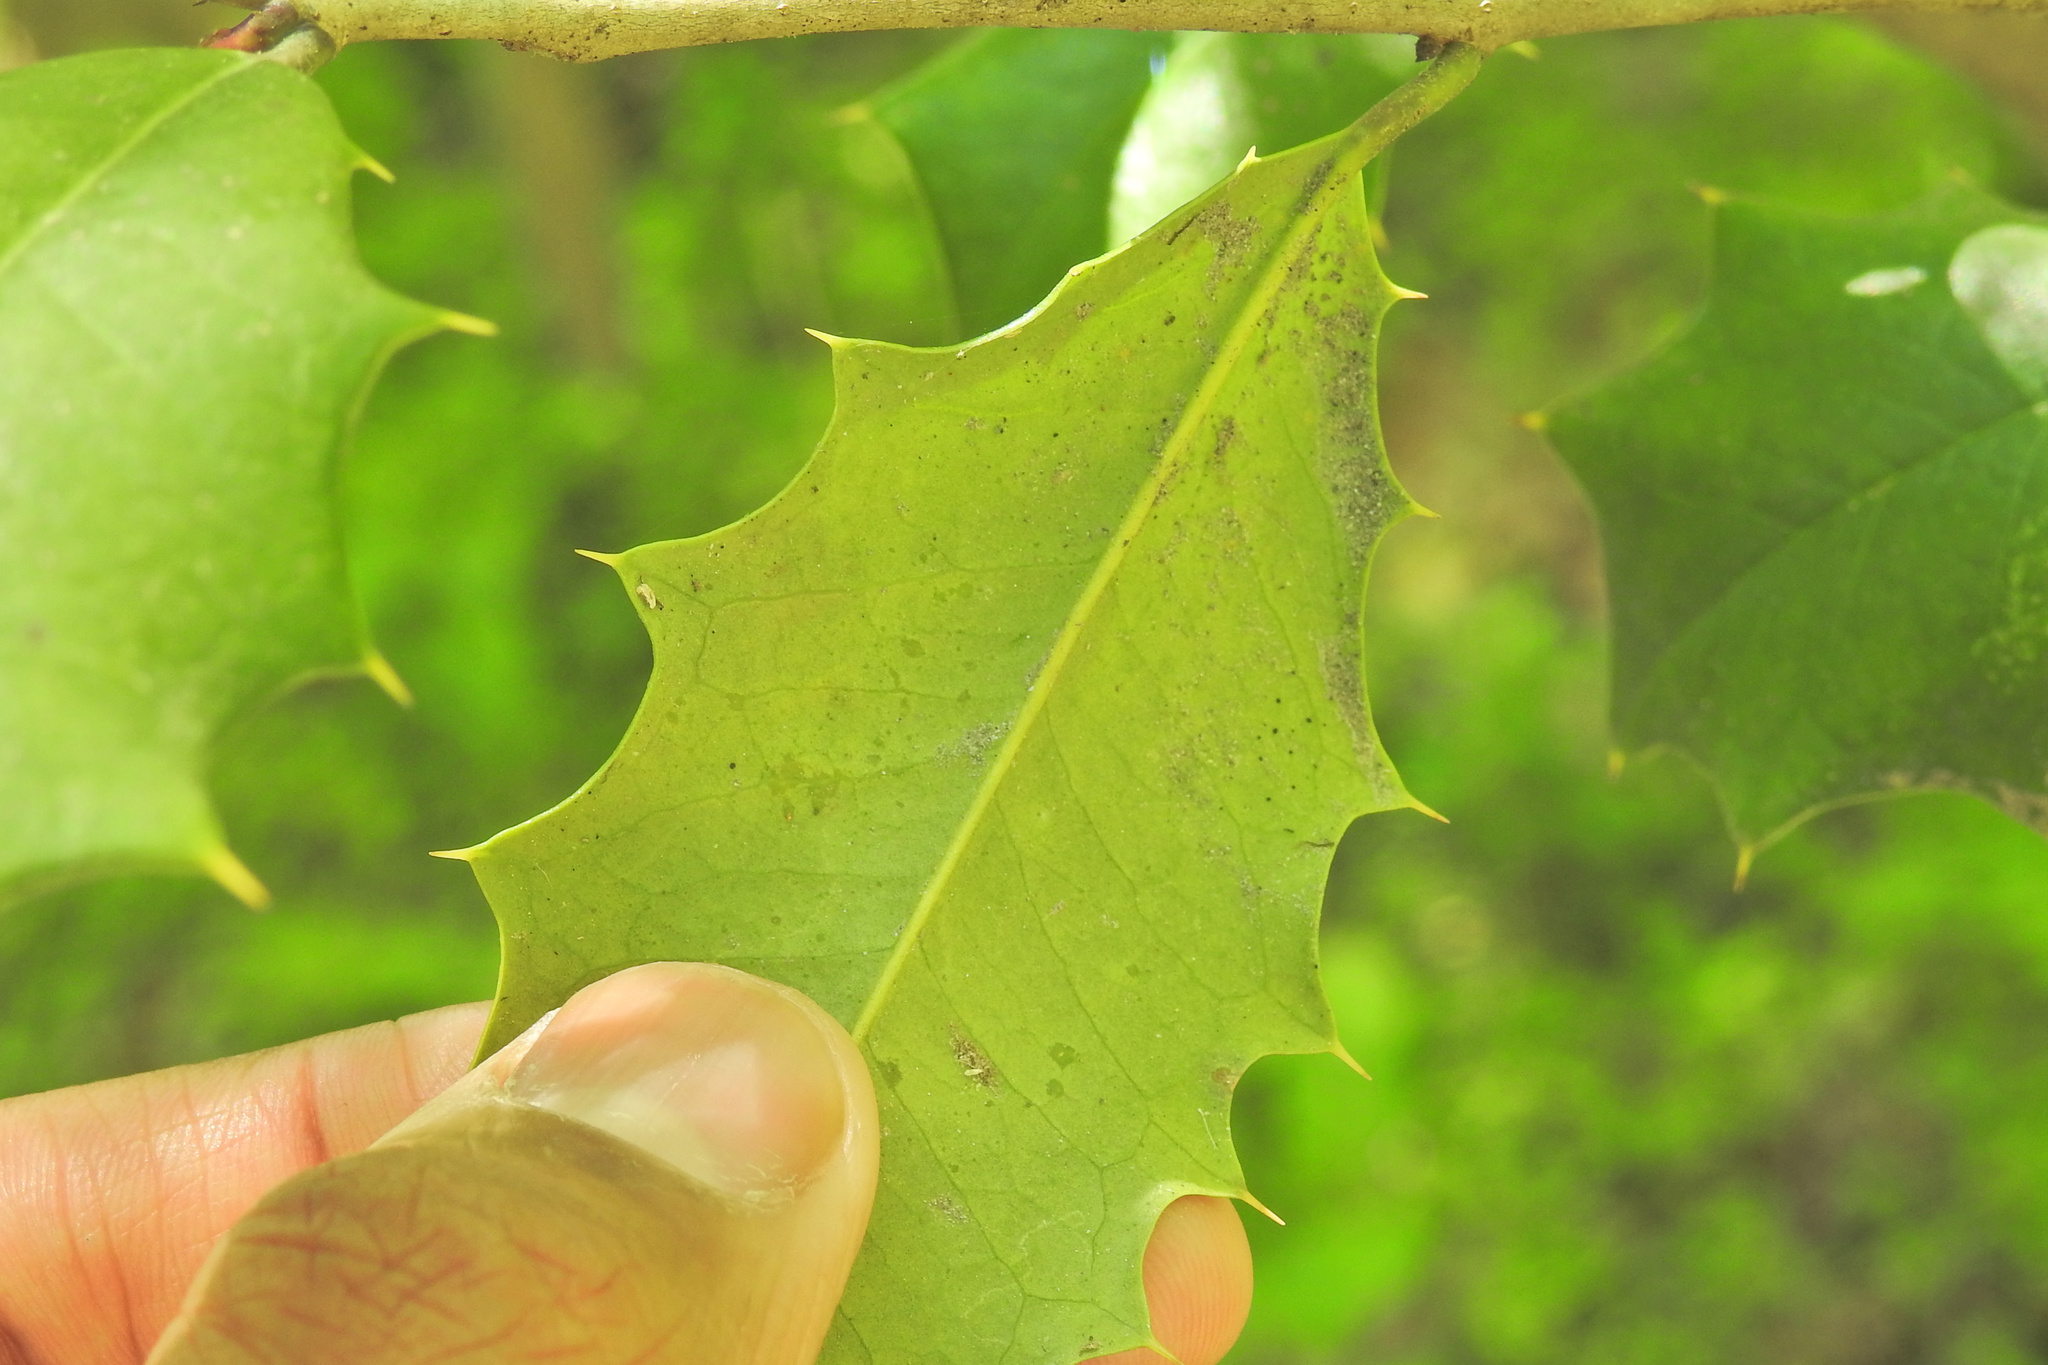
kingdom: Animalia
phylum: Arthropoda
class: Insecta
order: Diptera
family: Agromyzidae
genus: Phytomyza
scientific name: Phytomyza ilicicola
